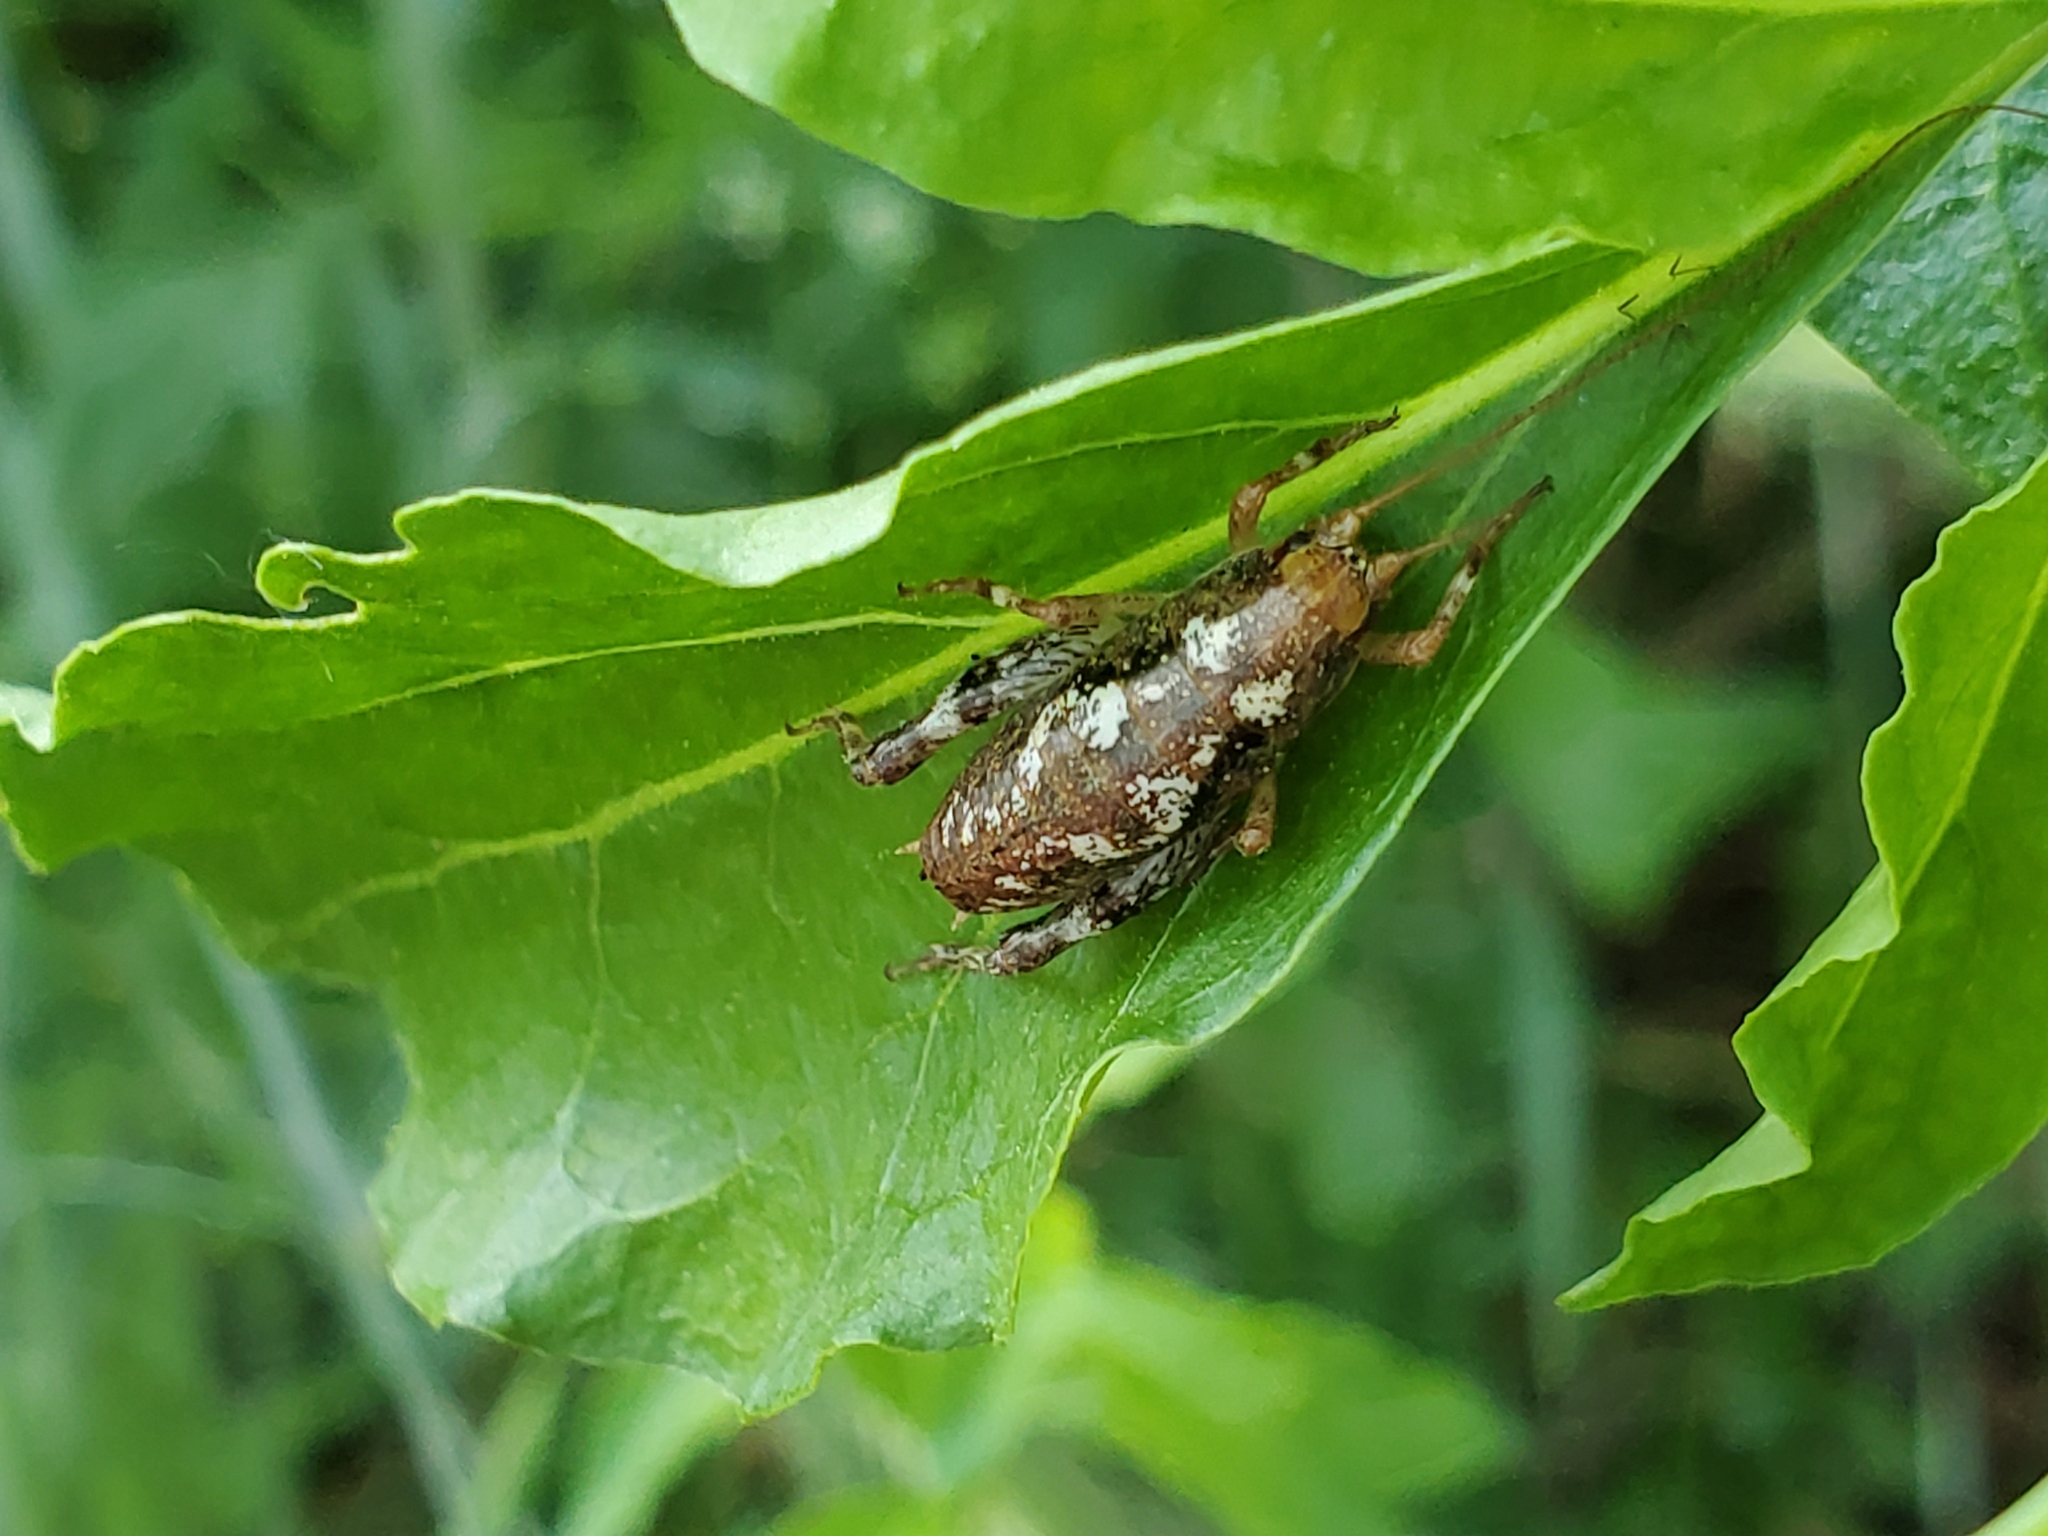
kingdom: Animalia
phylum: Arthropoda
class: Insecta
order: Orthoptera
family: Rhaphidophoridae
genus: Gammarotettix
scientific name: Gammarotettix bilobatus
